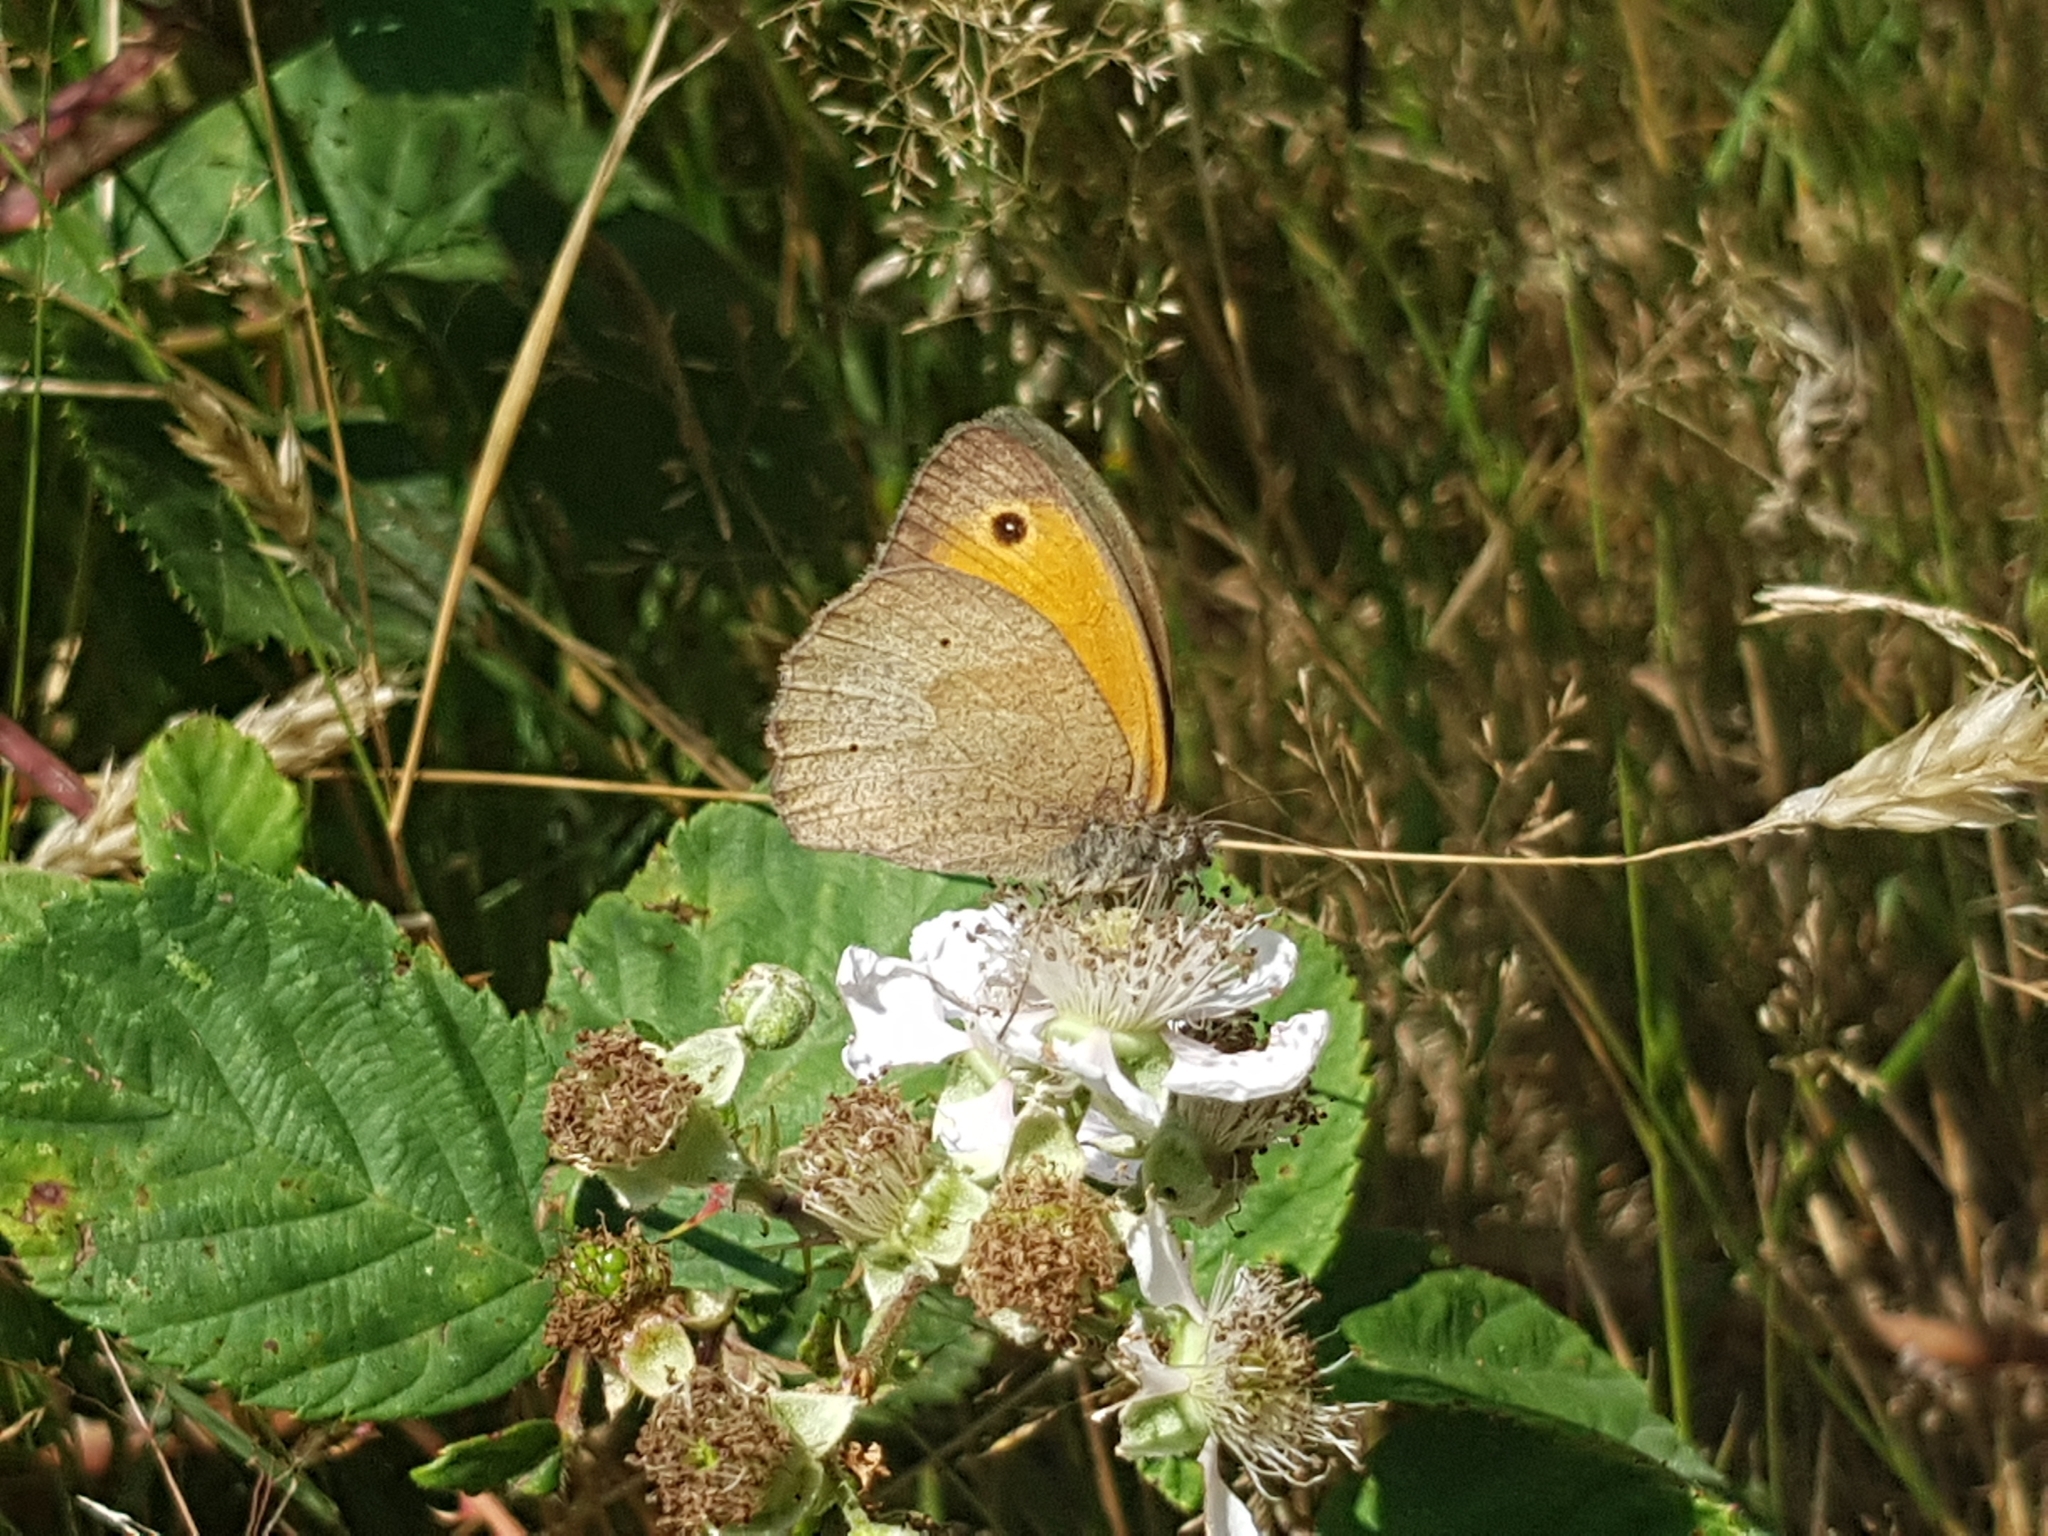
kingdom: Animalia
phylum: Arthropoda
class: Insecta
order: Lepidoptera
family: Nymphalidae
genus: Maniola
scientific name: Maniola jurtina
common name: Meadow brown
